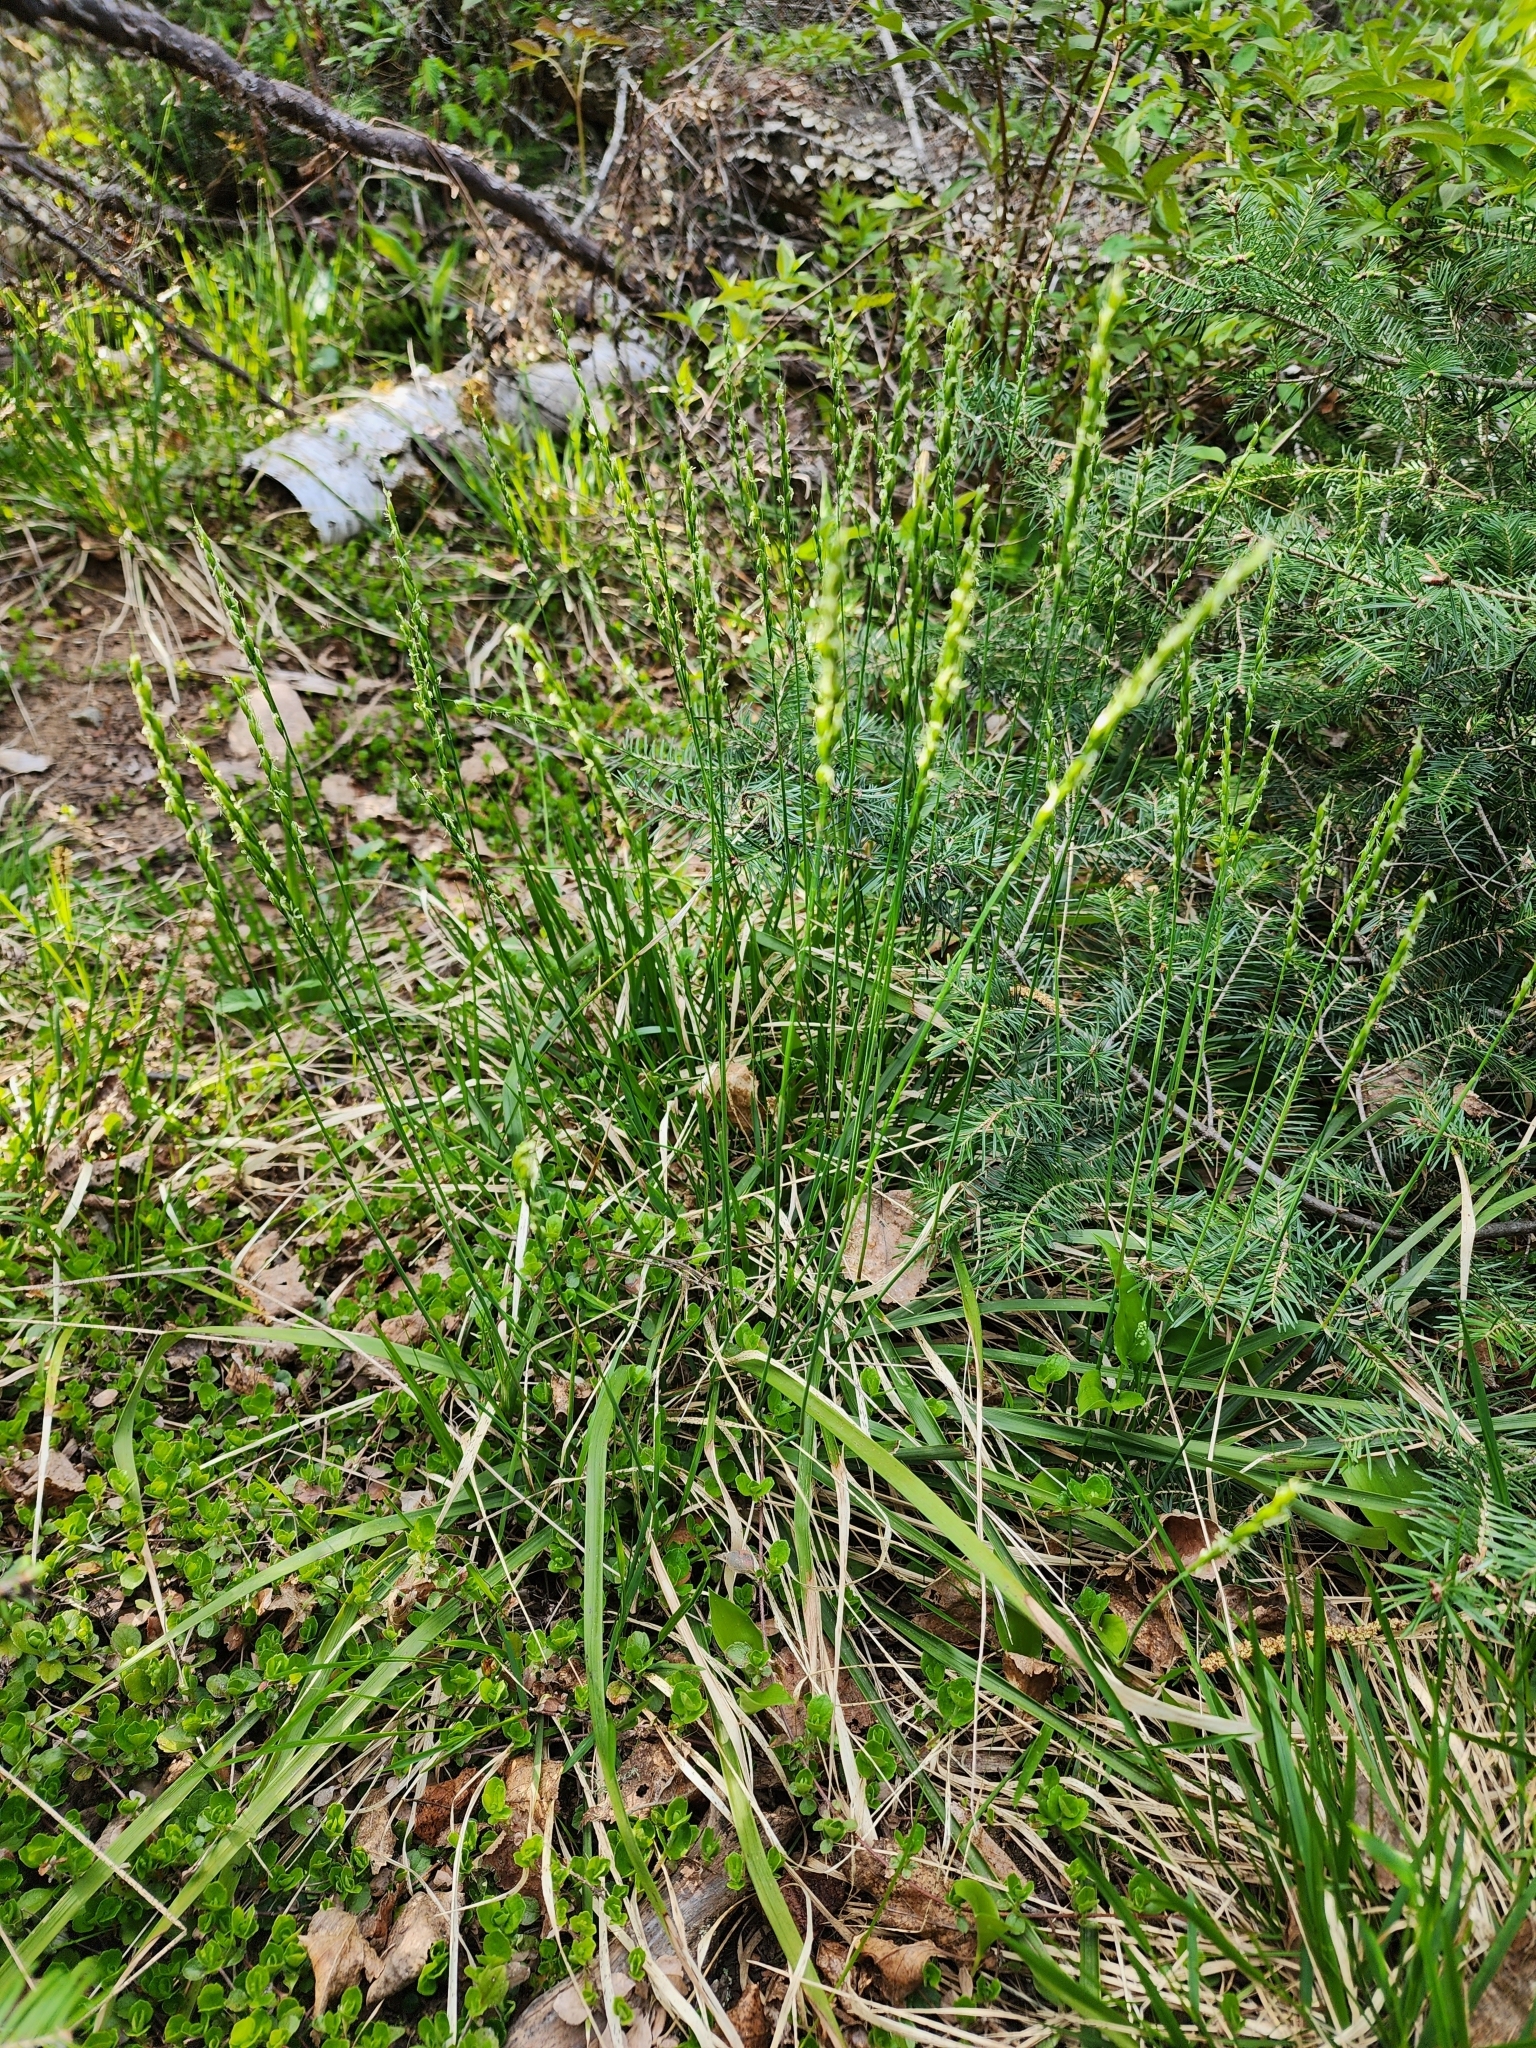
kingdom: Plantae
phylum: Tracheophyta
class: Liliopsida
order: Poales
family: Poaceae
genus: Oryzopsis
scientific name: Oryzopsis asperifolia
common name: Rough-leaved mountain rice
